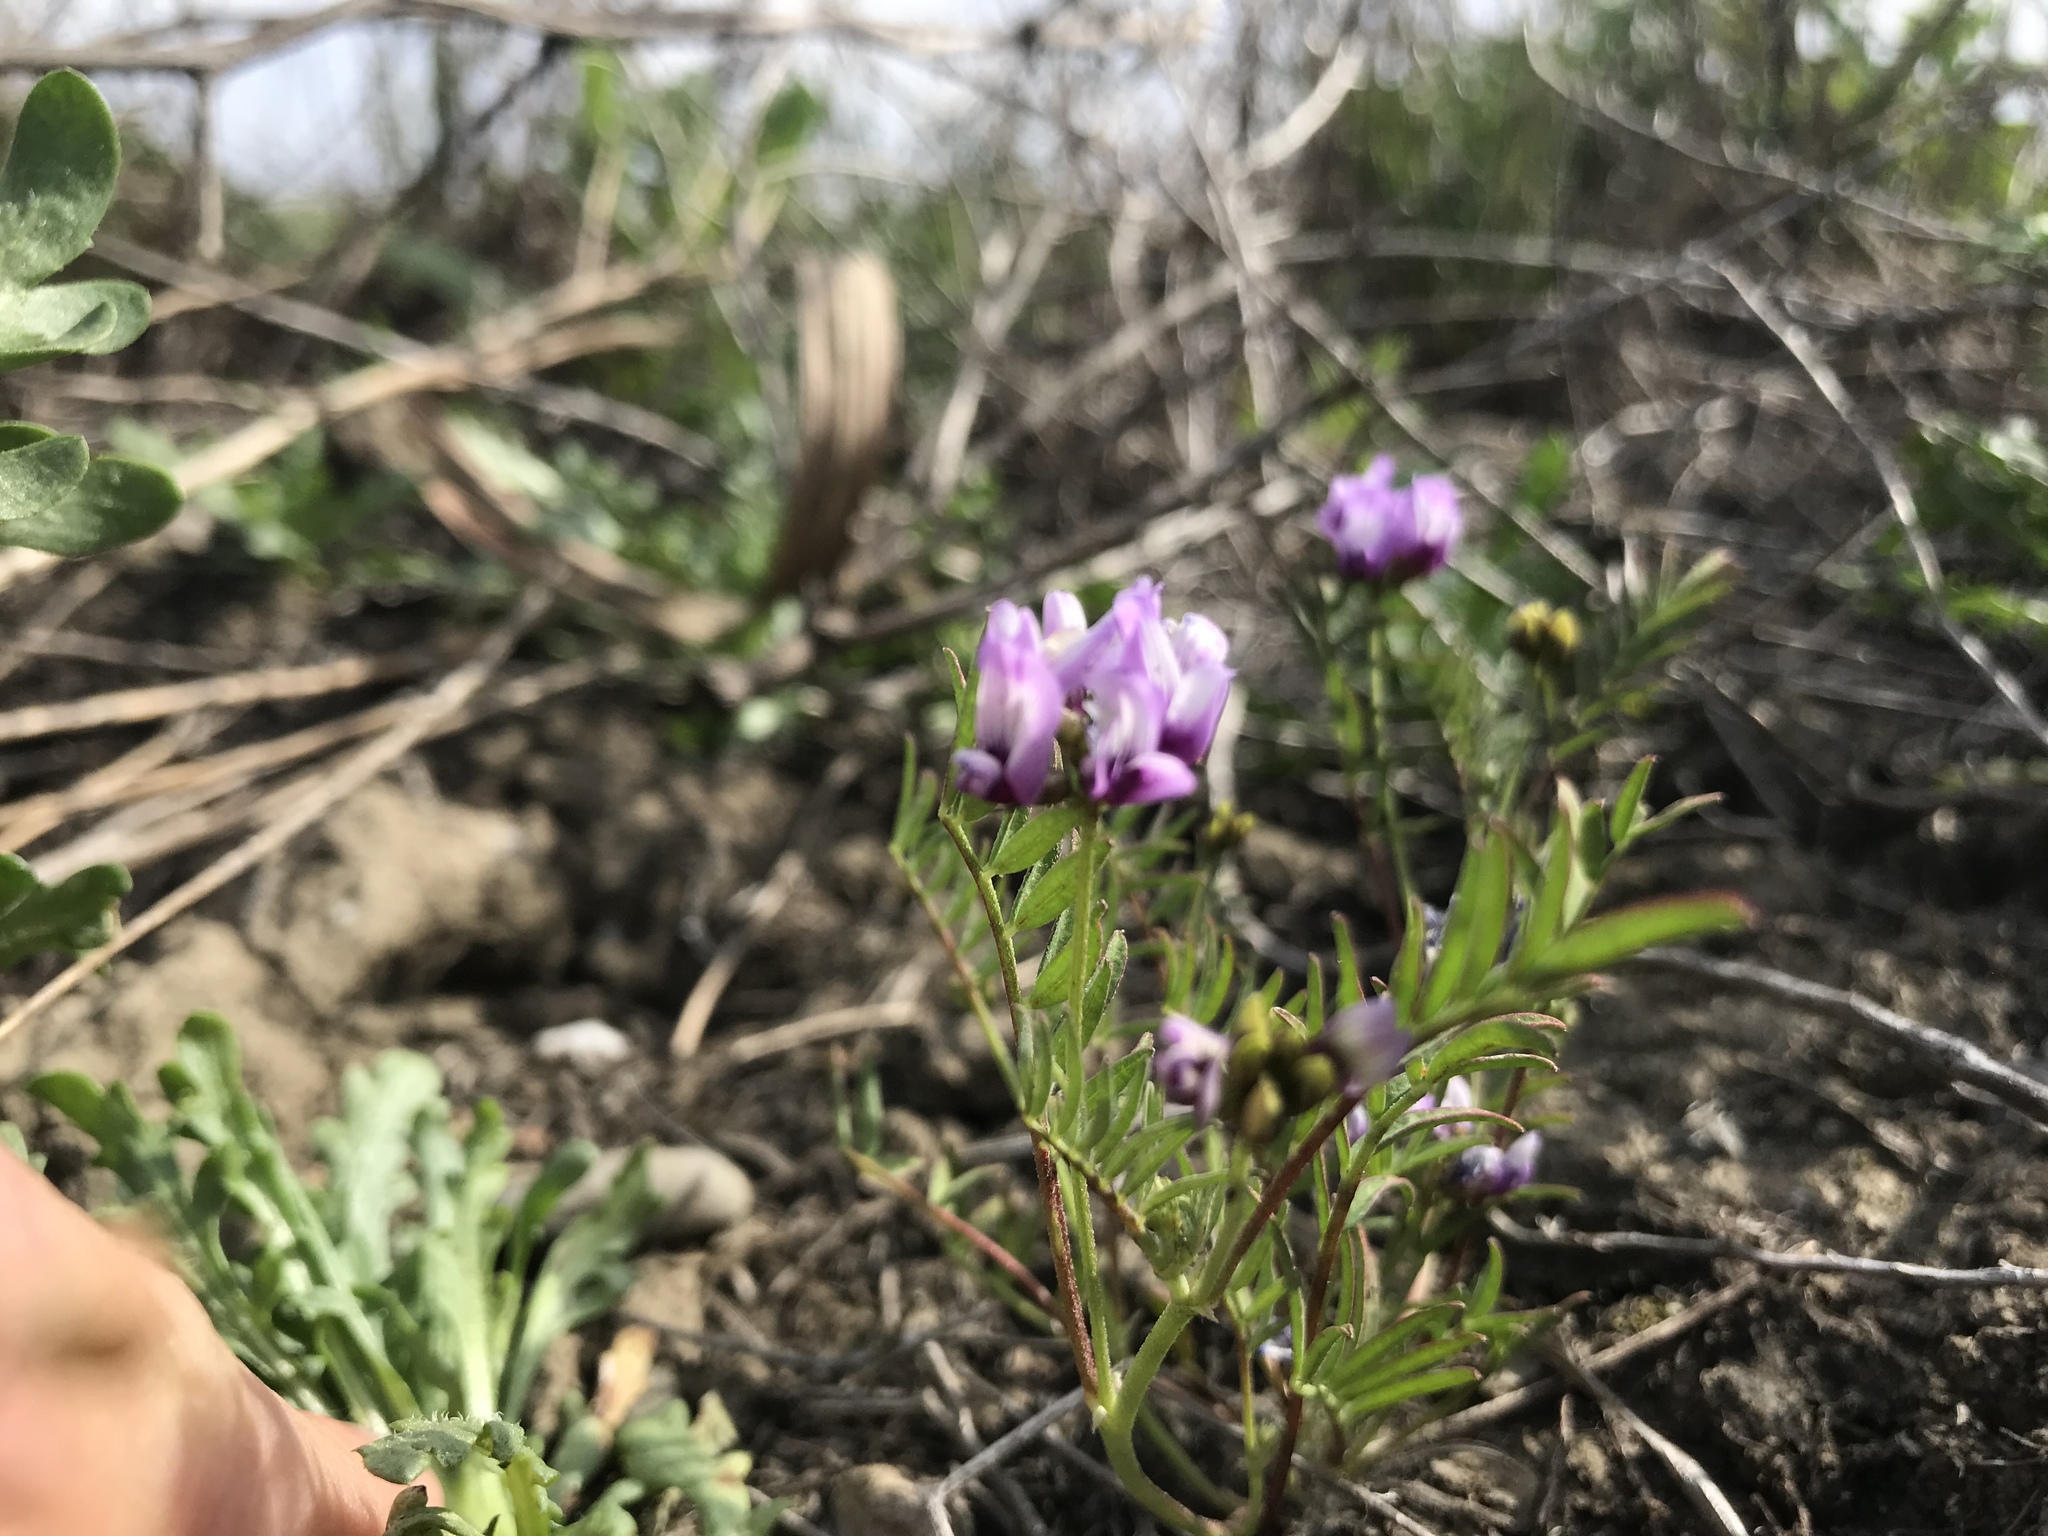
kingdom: Plantae
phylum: Tracheophyta
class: Magnoliopsida
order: Fabales
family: Fabaceae
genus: Astragalus
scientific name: Astragalus tener
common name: Gray slender milkvetch
